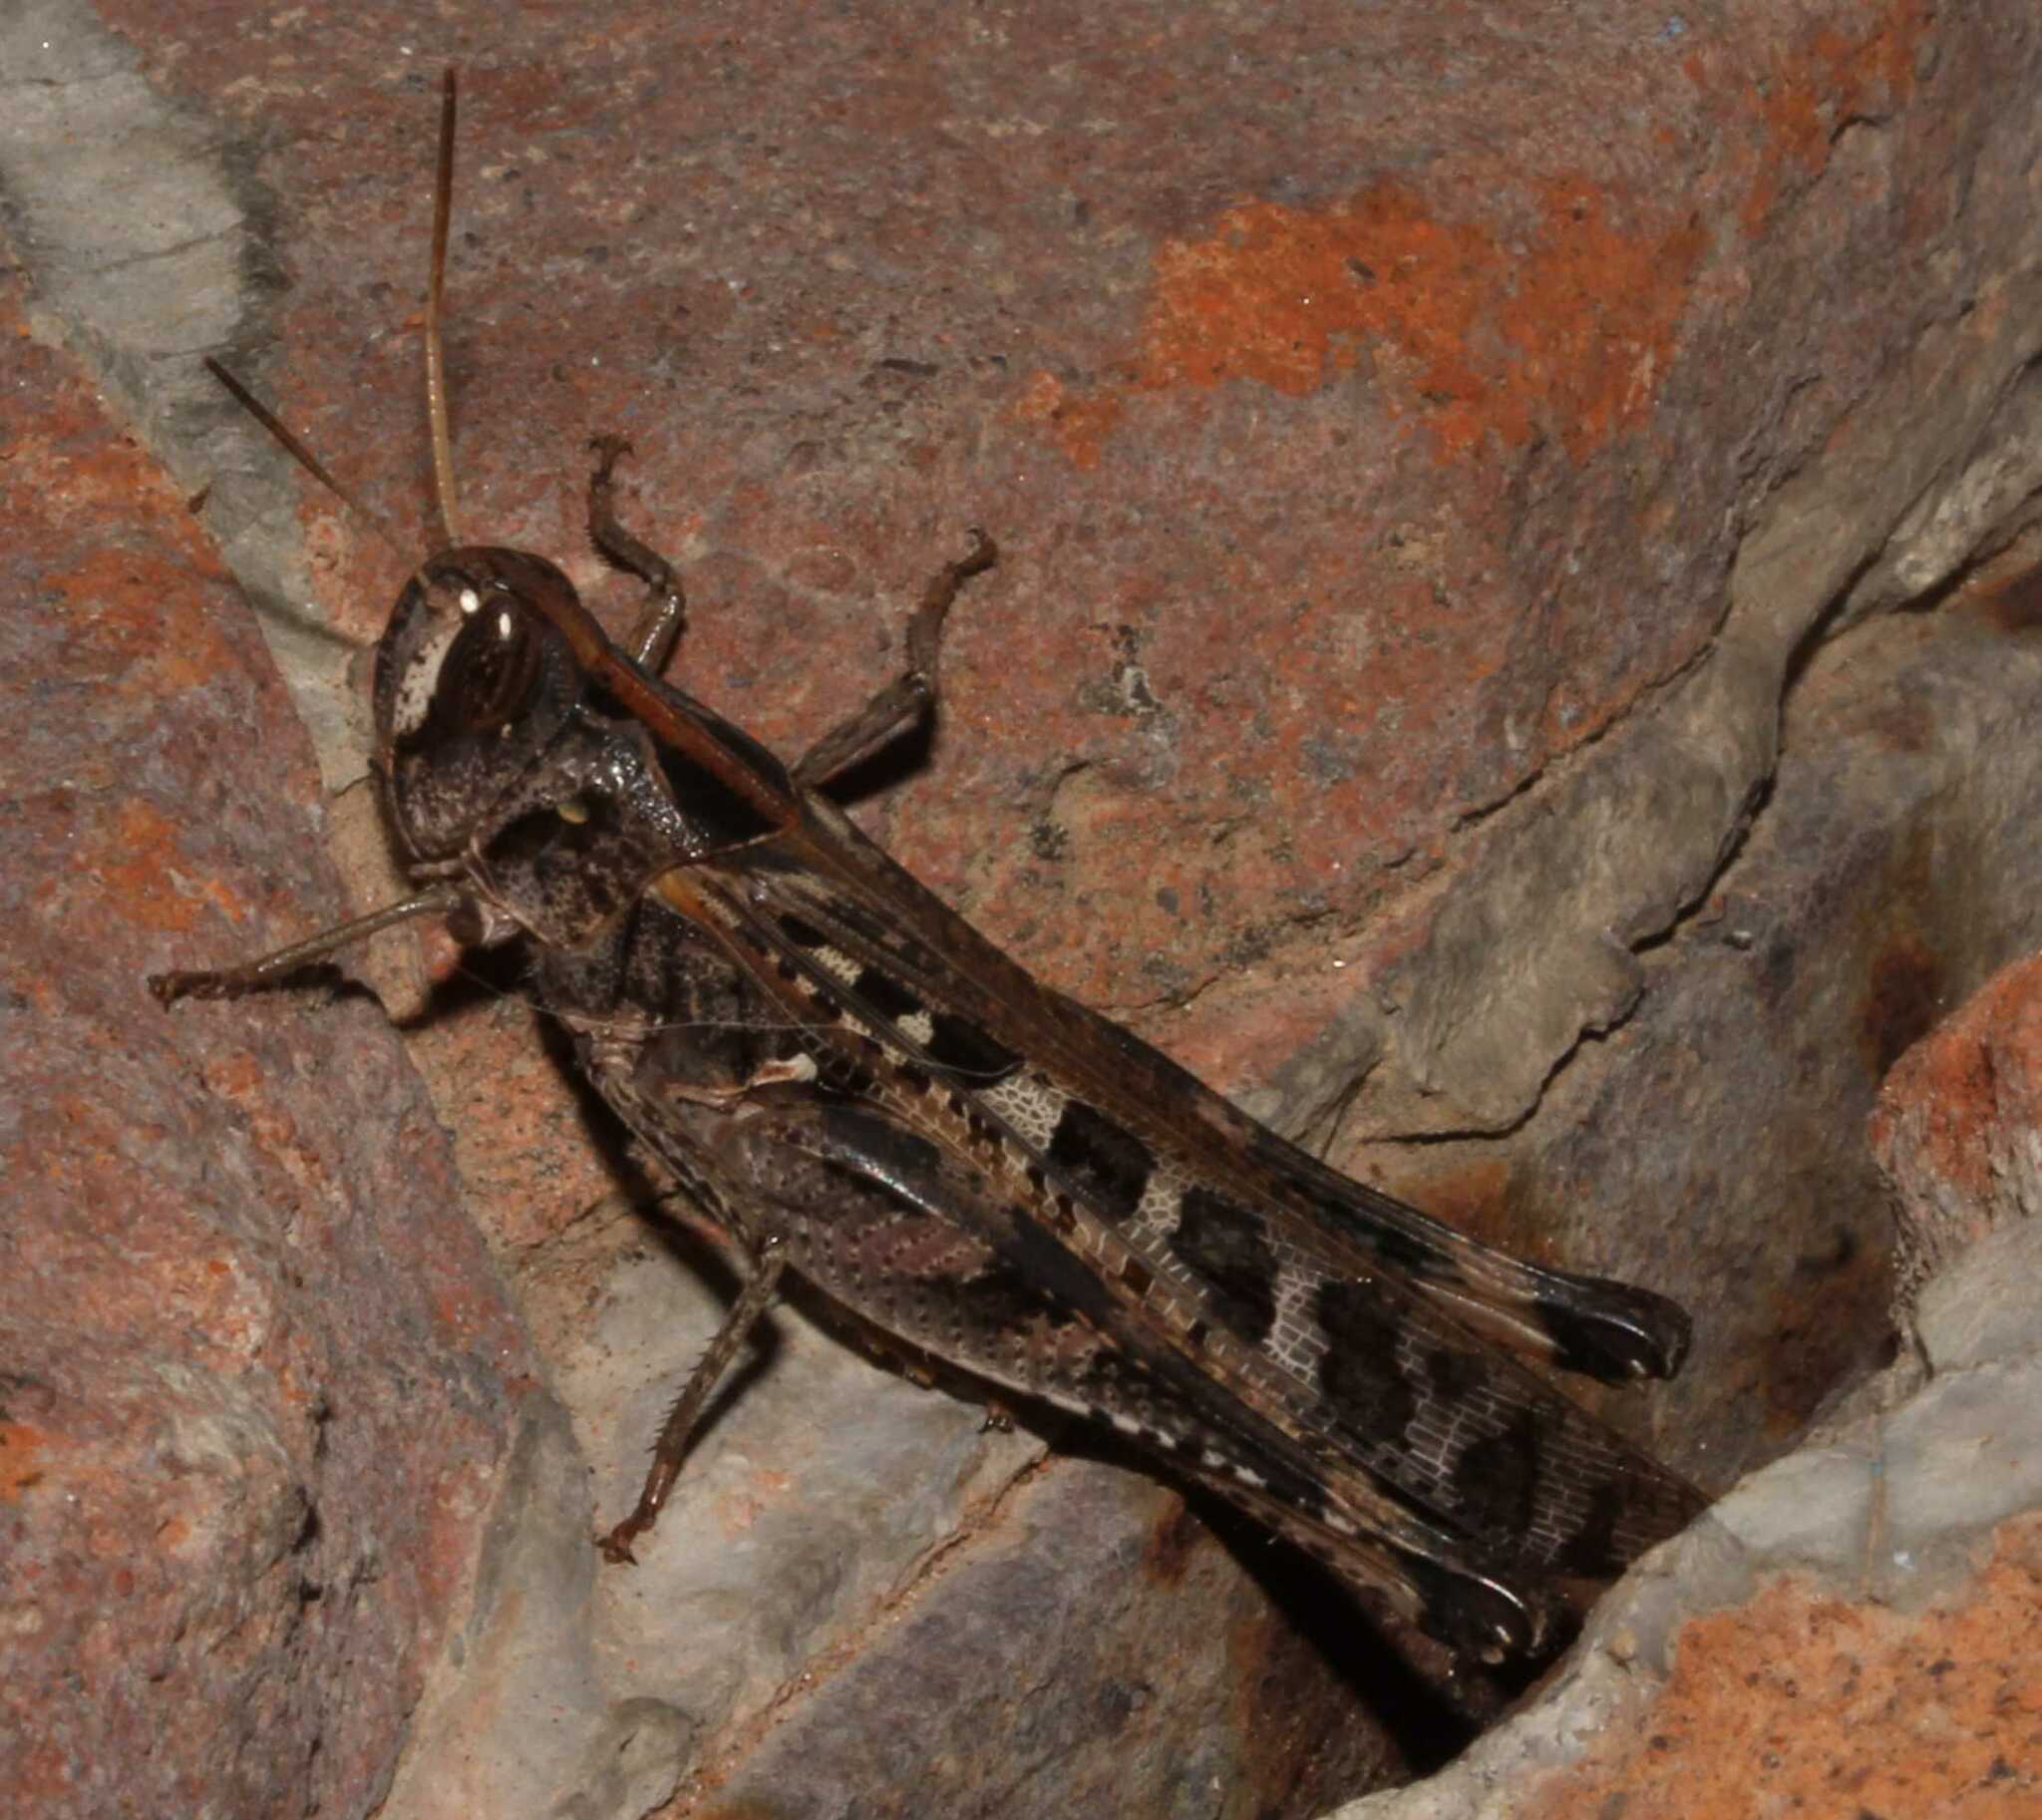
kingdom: Animalia
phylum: Arthropoda
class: Insecta
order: Orthoptera
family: Acrididae
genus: Rhammatocerus
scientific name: Rhammatocerus viatorius
